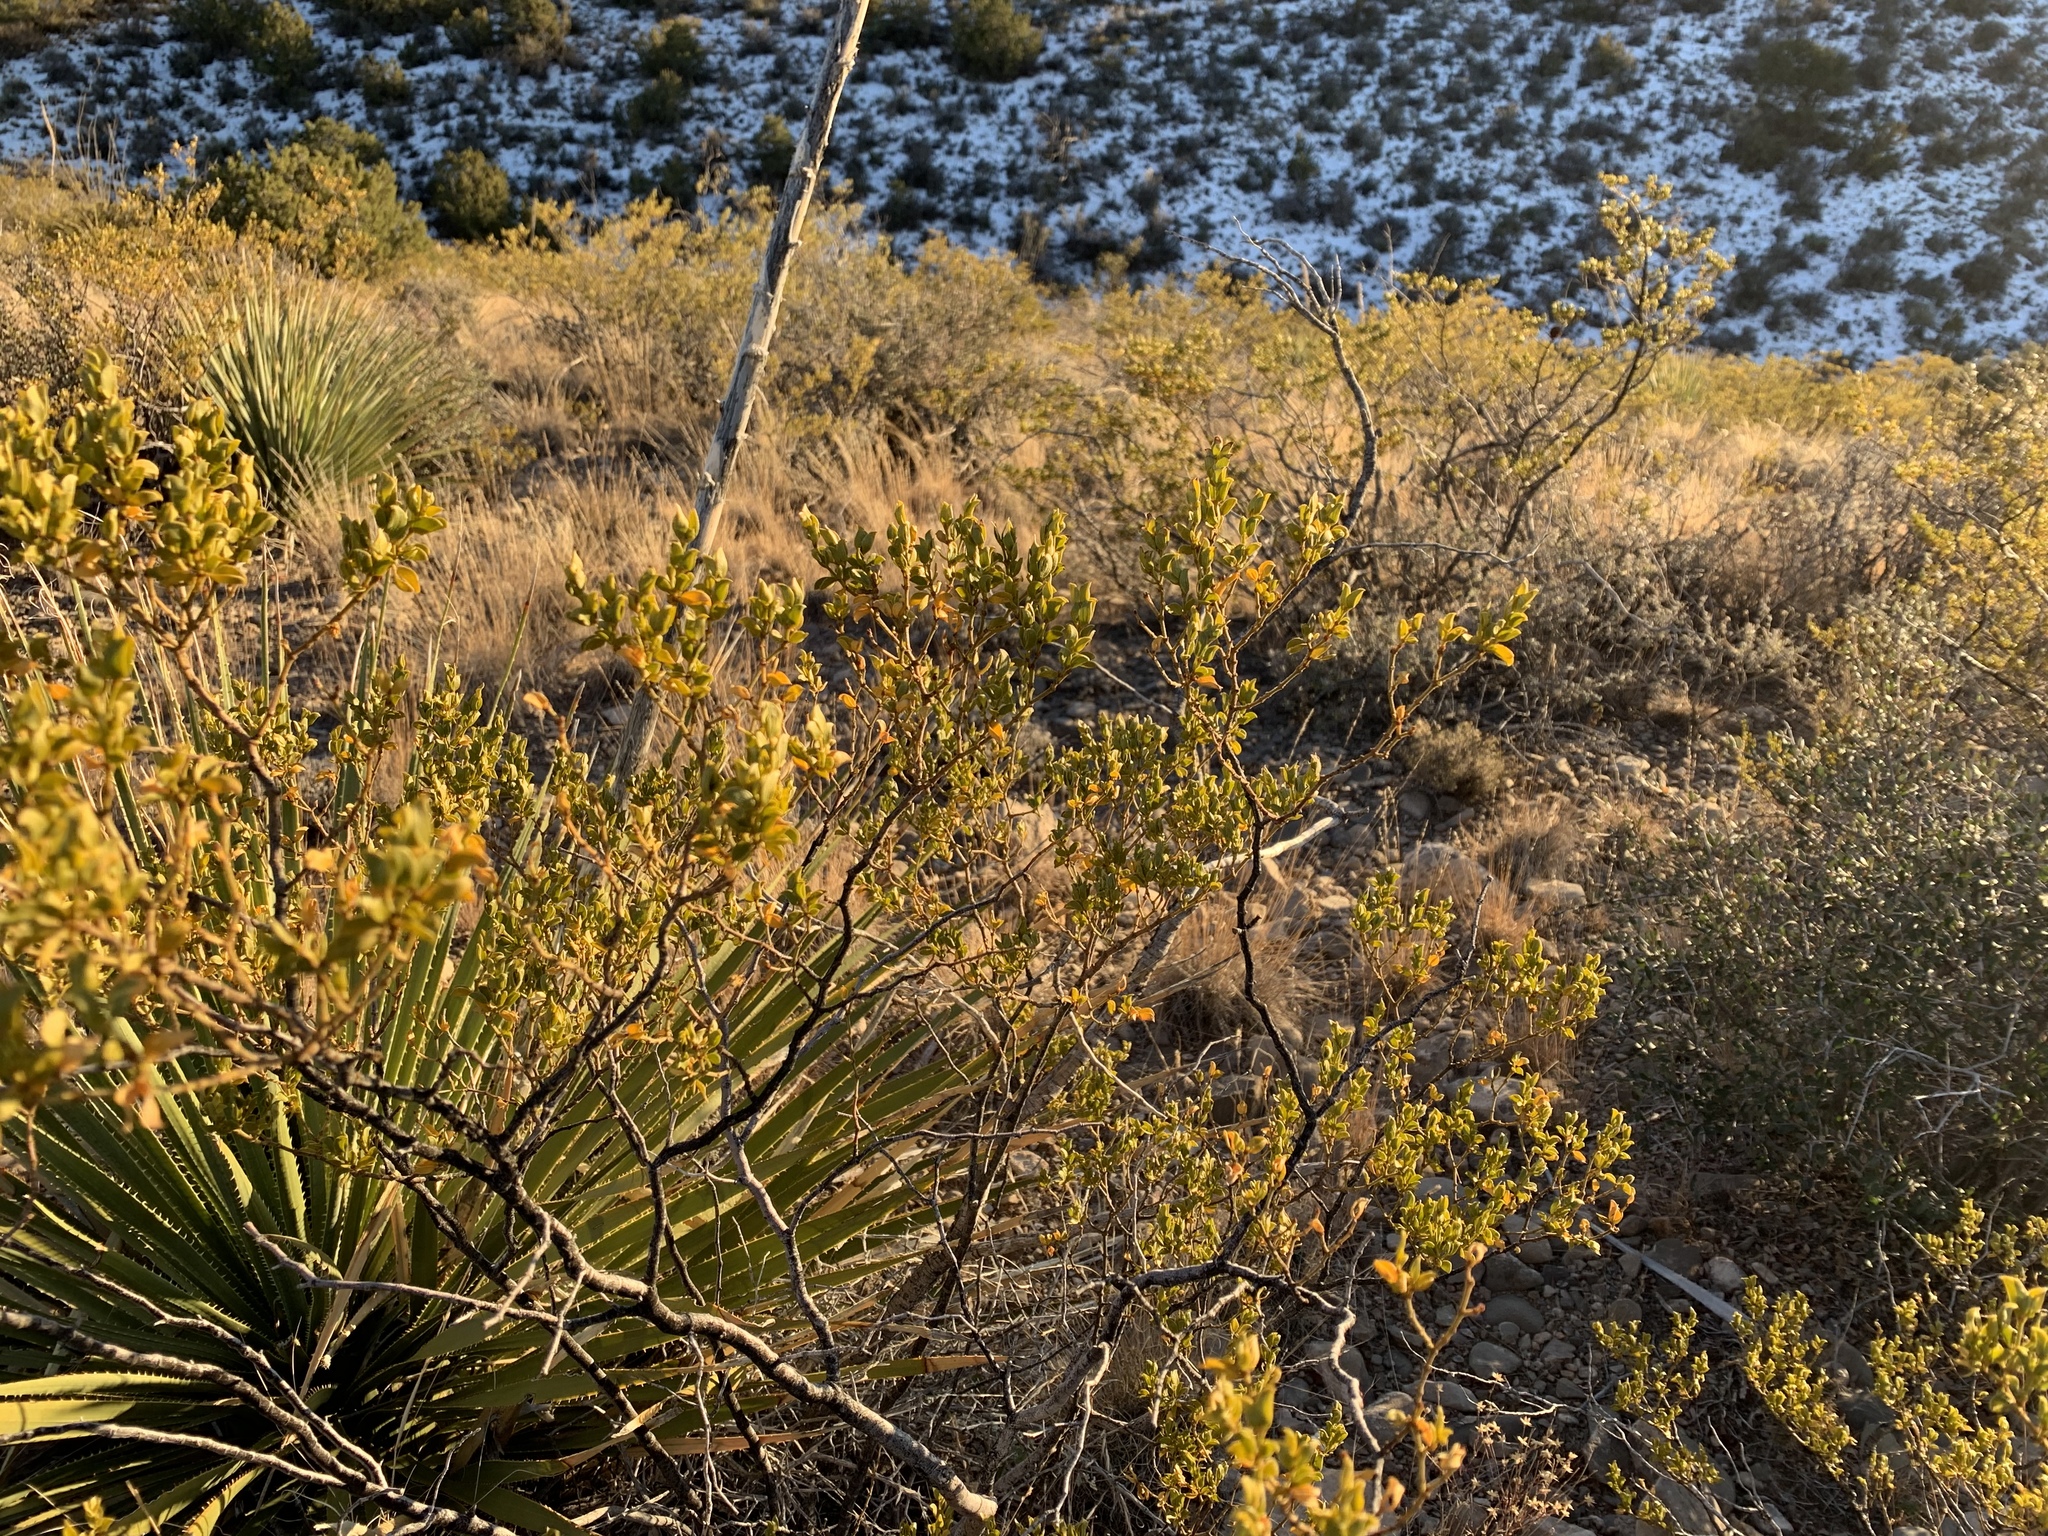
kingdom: Plantae
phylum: Tracheophyta
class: Magnoliopsida
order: Zygophyllales
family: Zygophyllaceae
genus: Larrea
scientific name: Larrea tridentata
